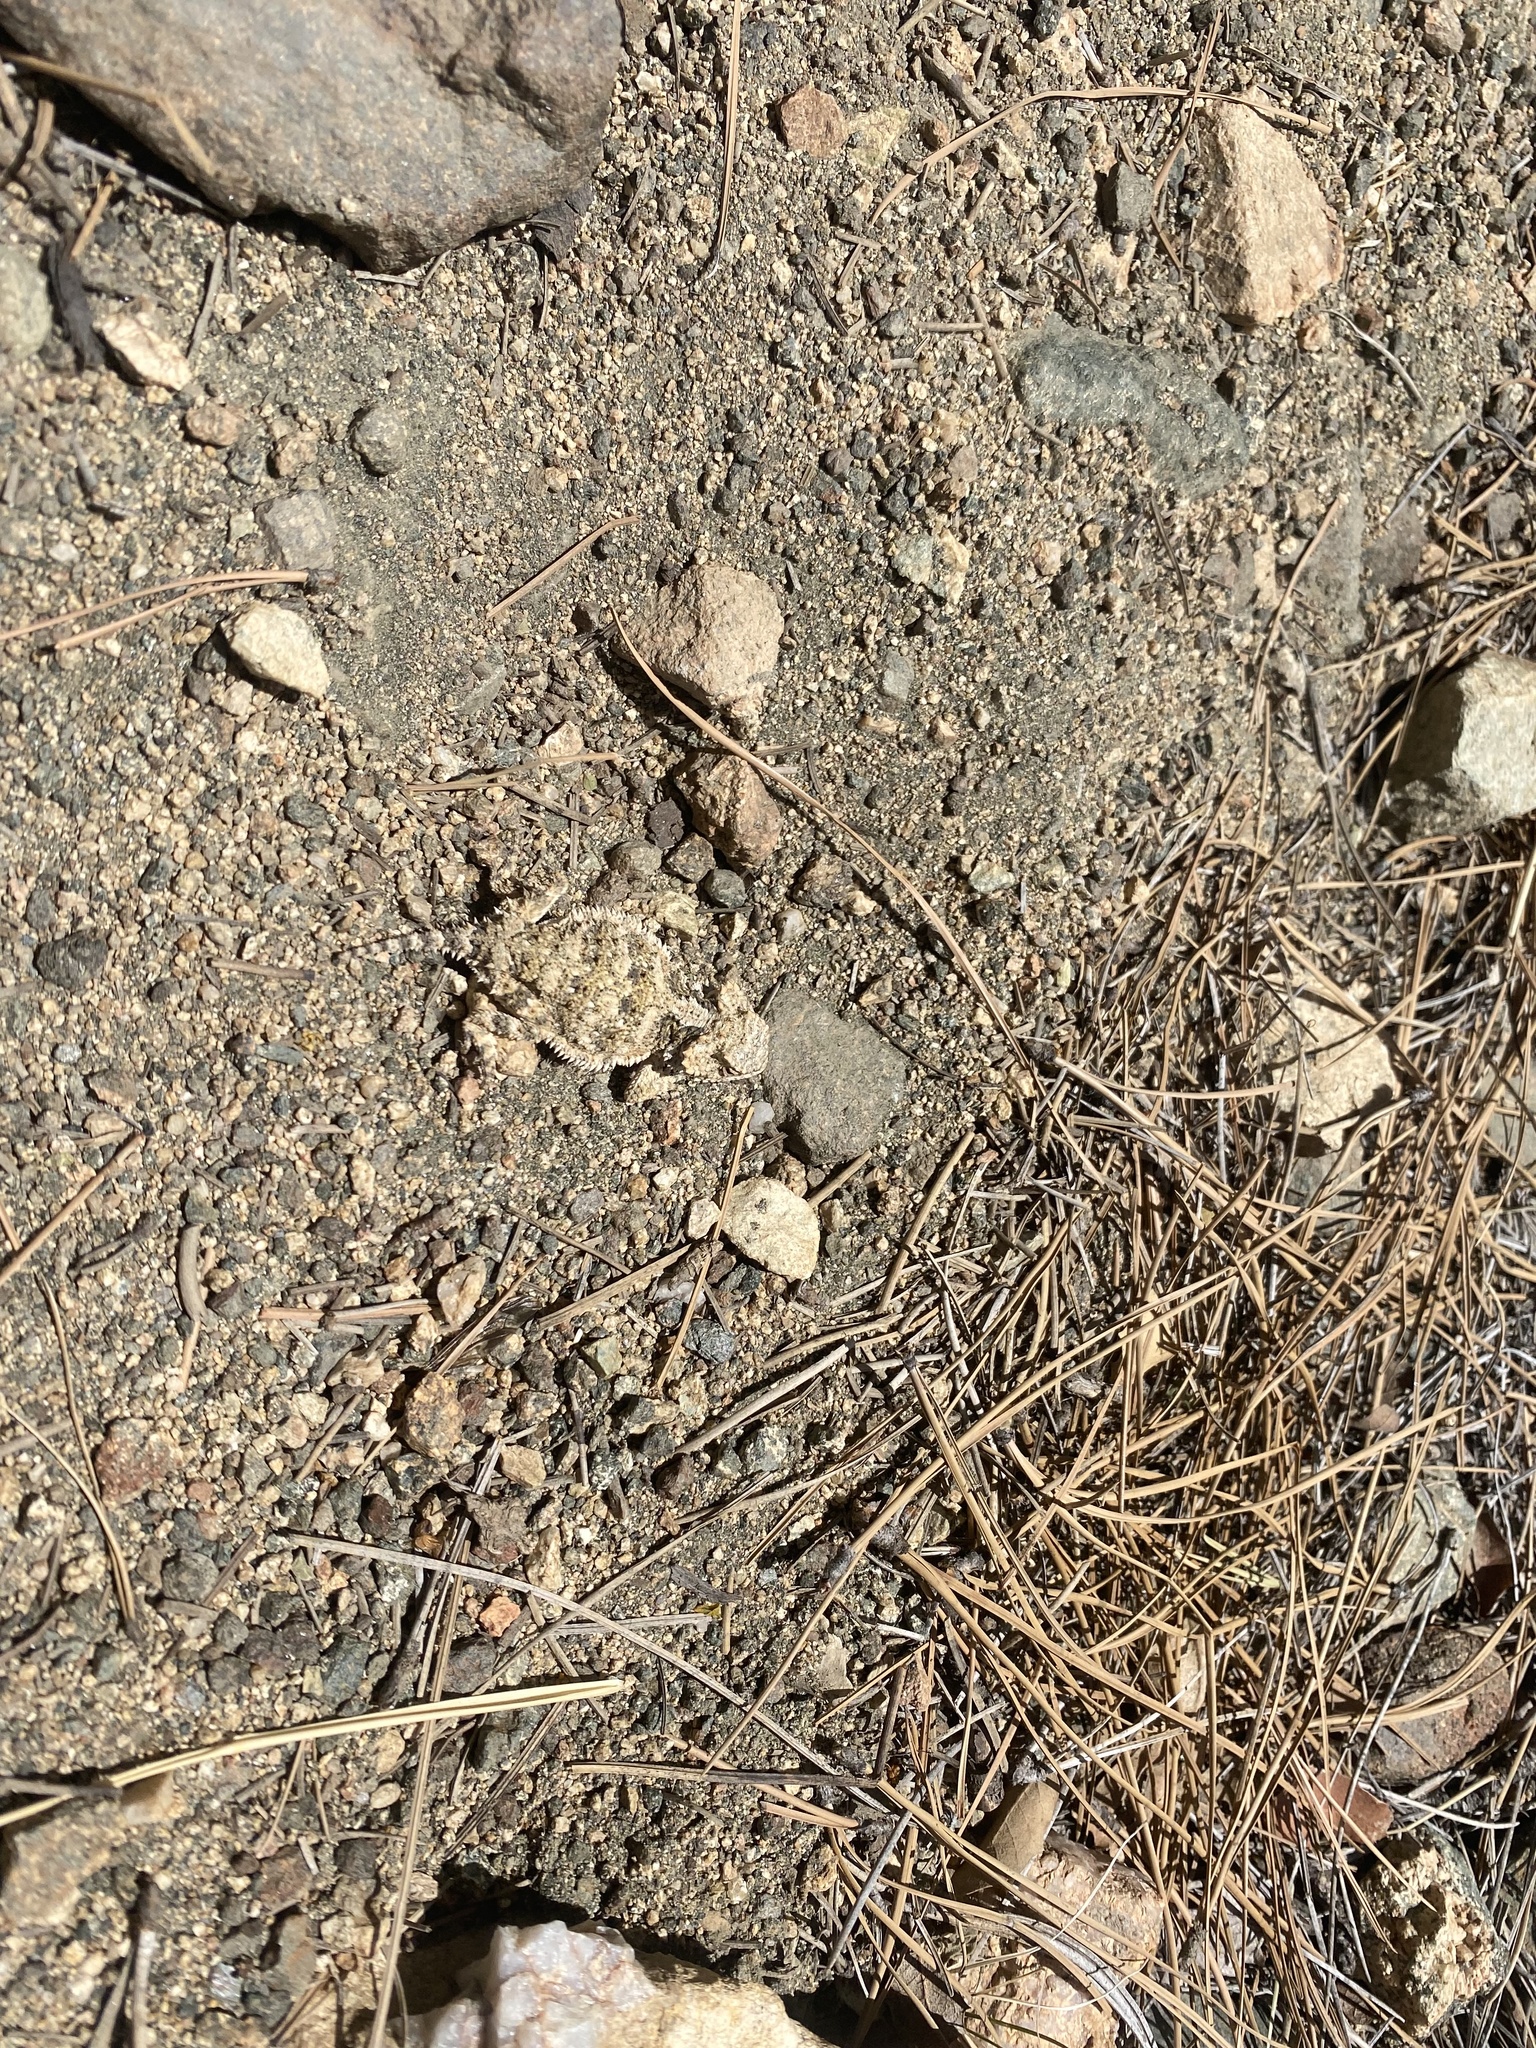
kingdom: Animalia
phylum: Chordata
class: Squamata
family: Phrynosomatidae
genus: Phrynosoma
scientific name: Phrynosoma hernandesi
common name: Greater short-horned lizard
